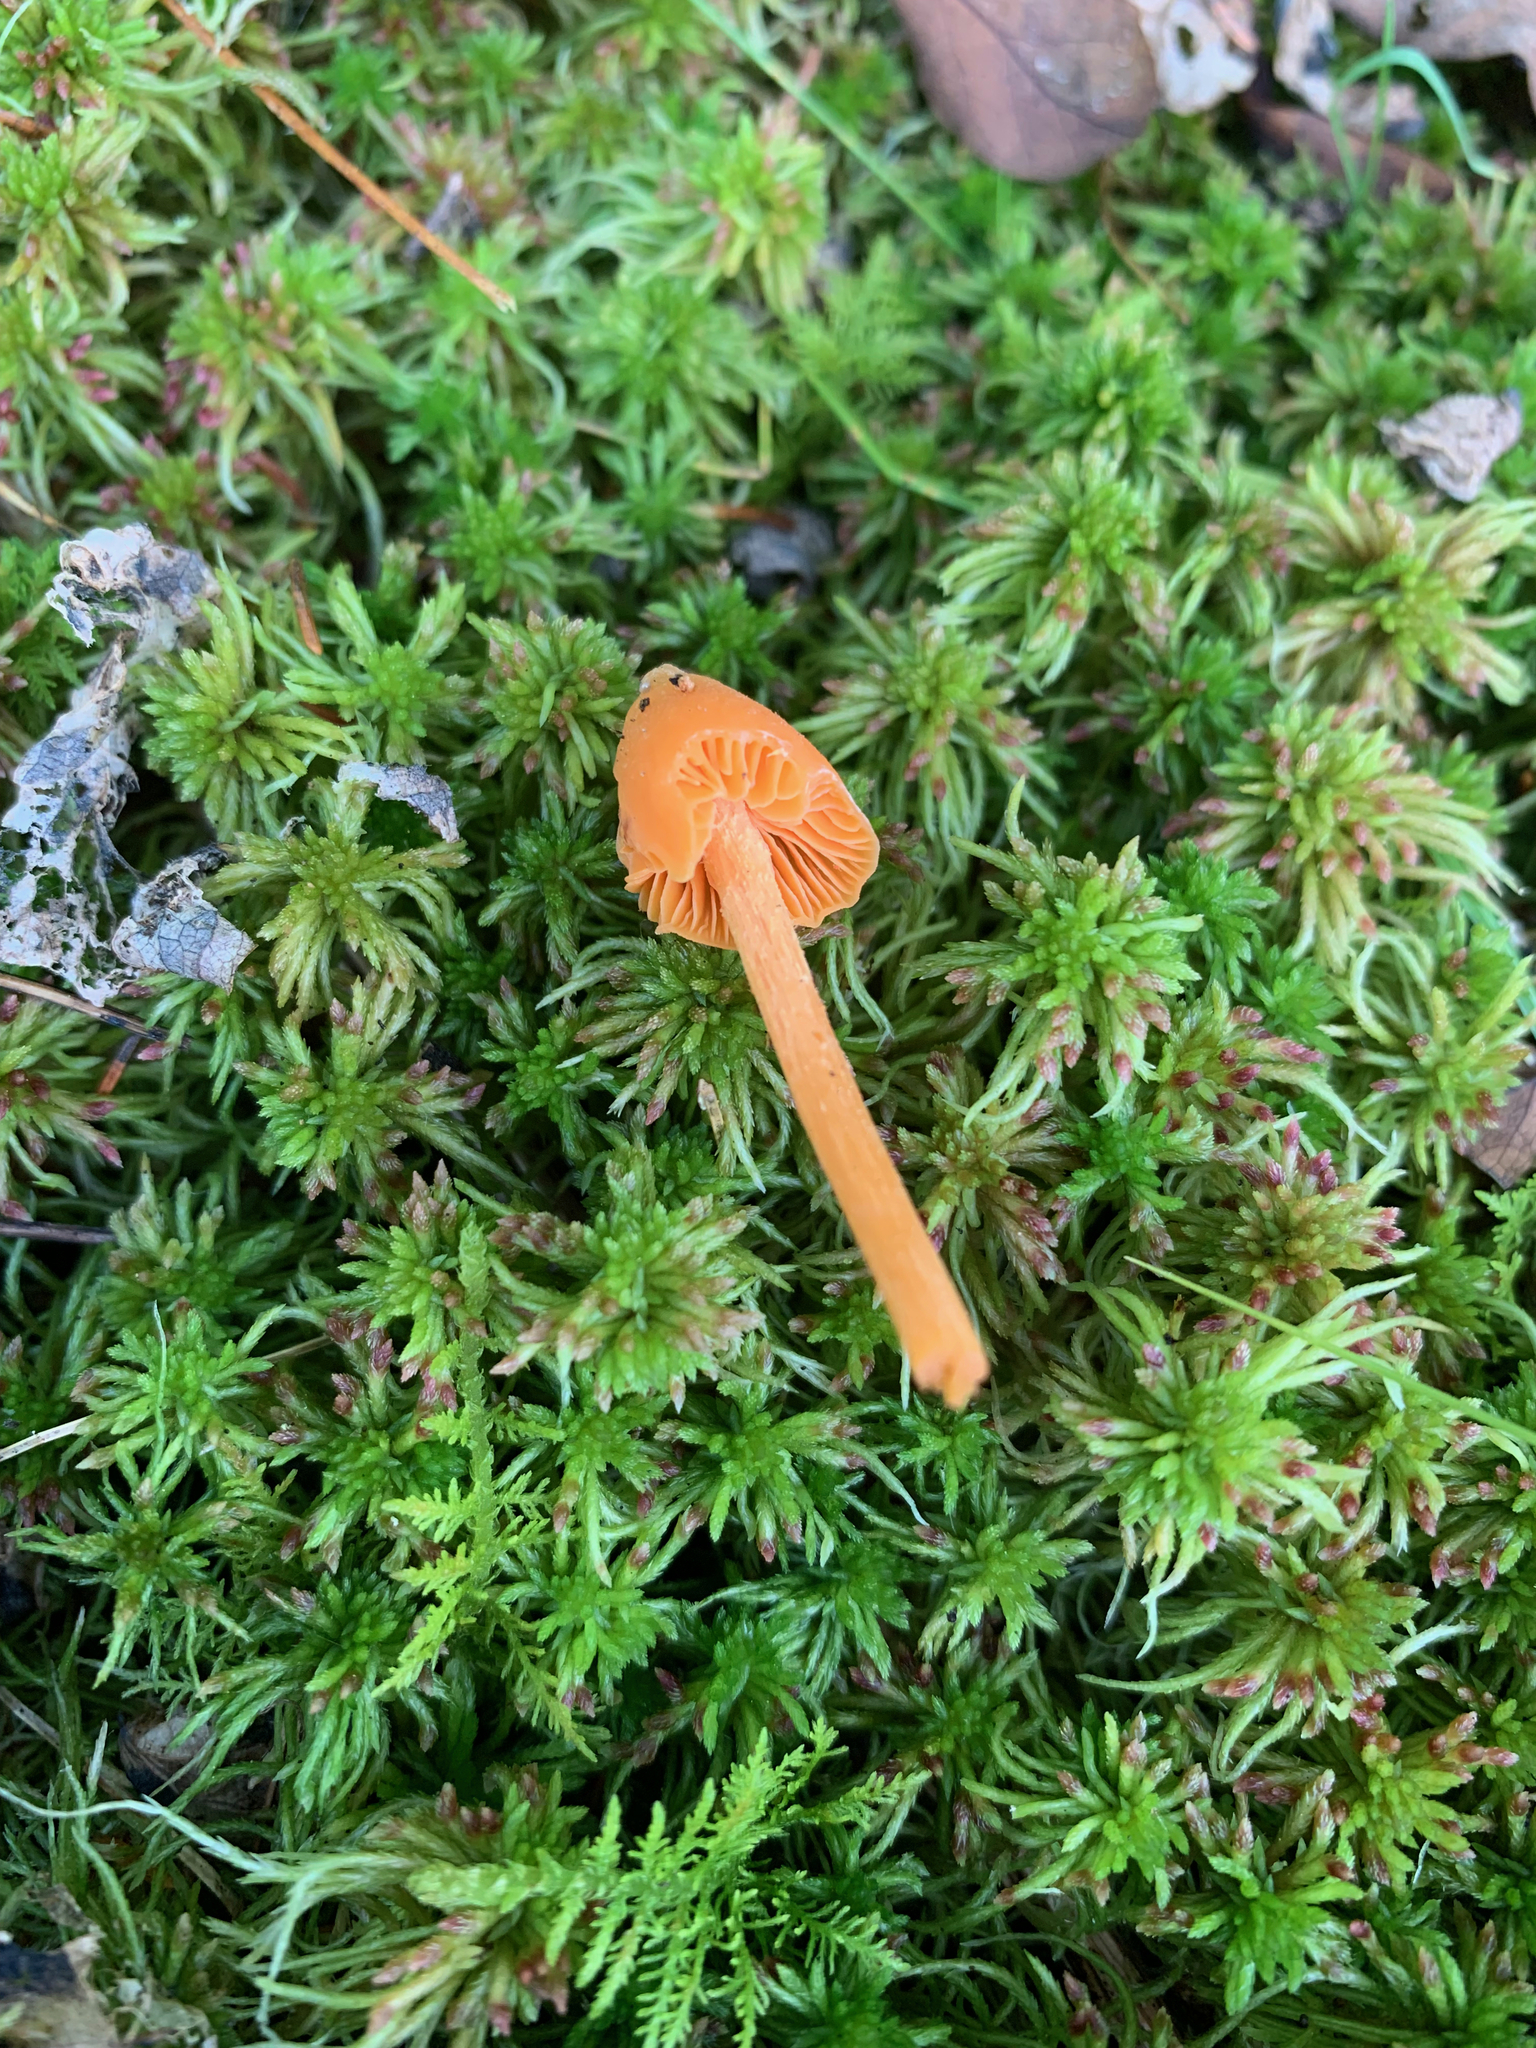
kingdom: Fungi
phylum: Basidiomycota
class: Agaricomycetes
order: Agaricales
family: Entolomataceae
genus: Entoloma
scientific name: Entoloma quadratum
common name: Salmon pinkgill
